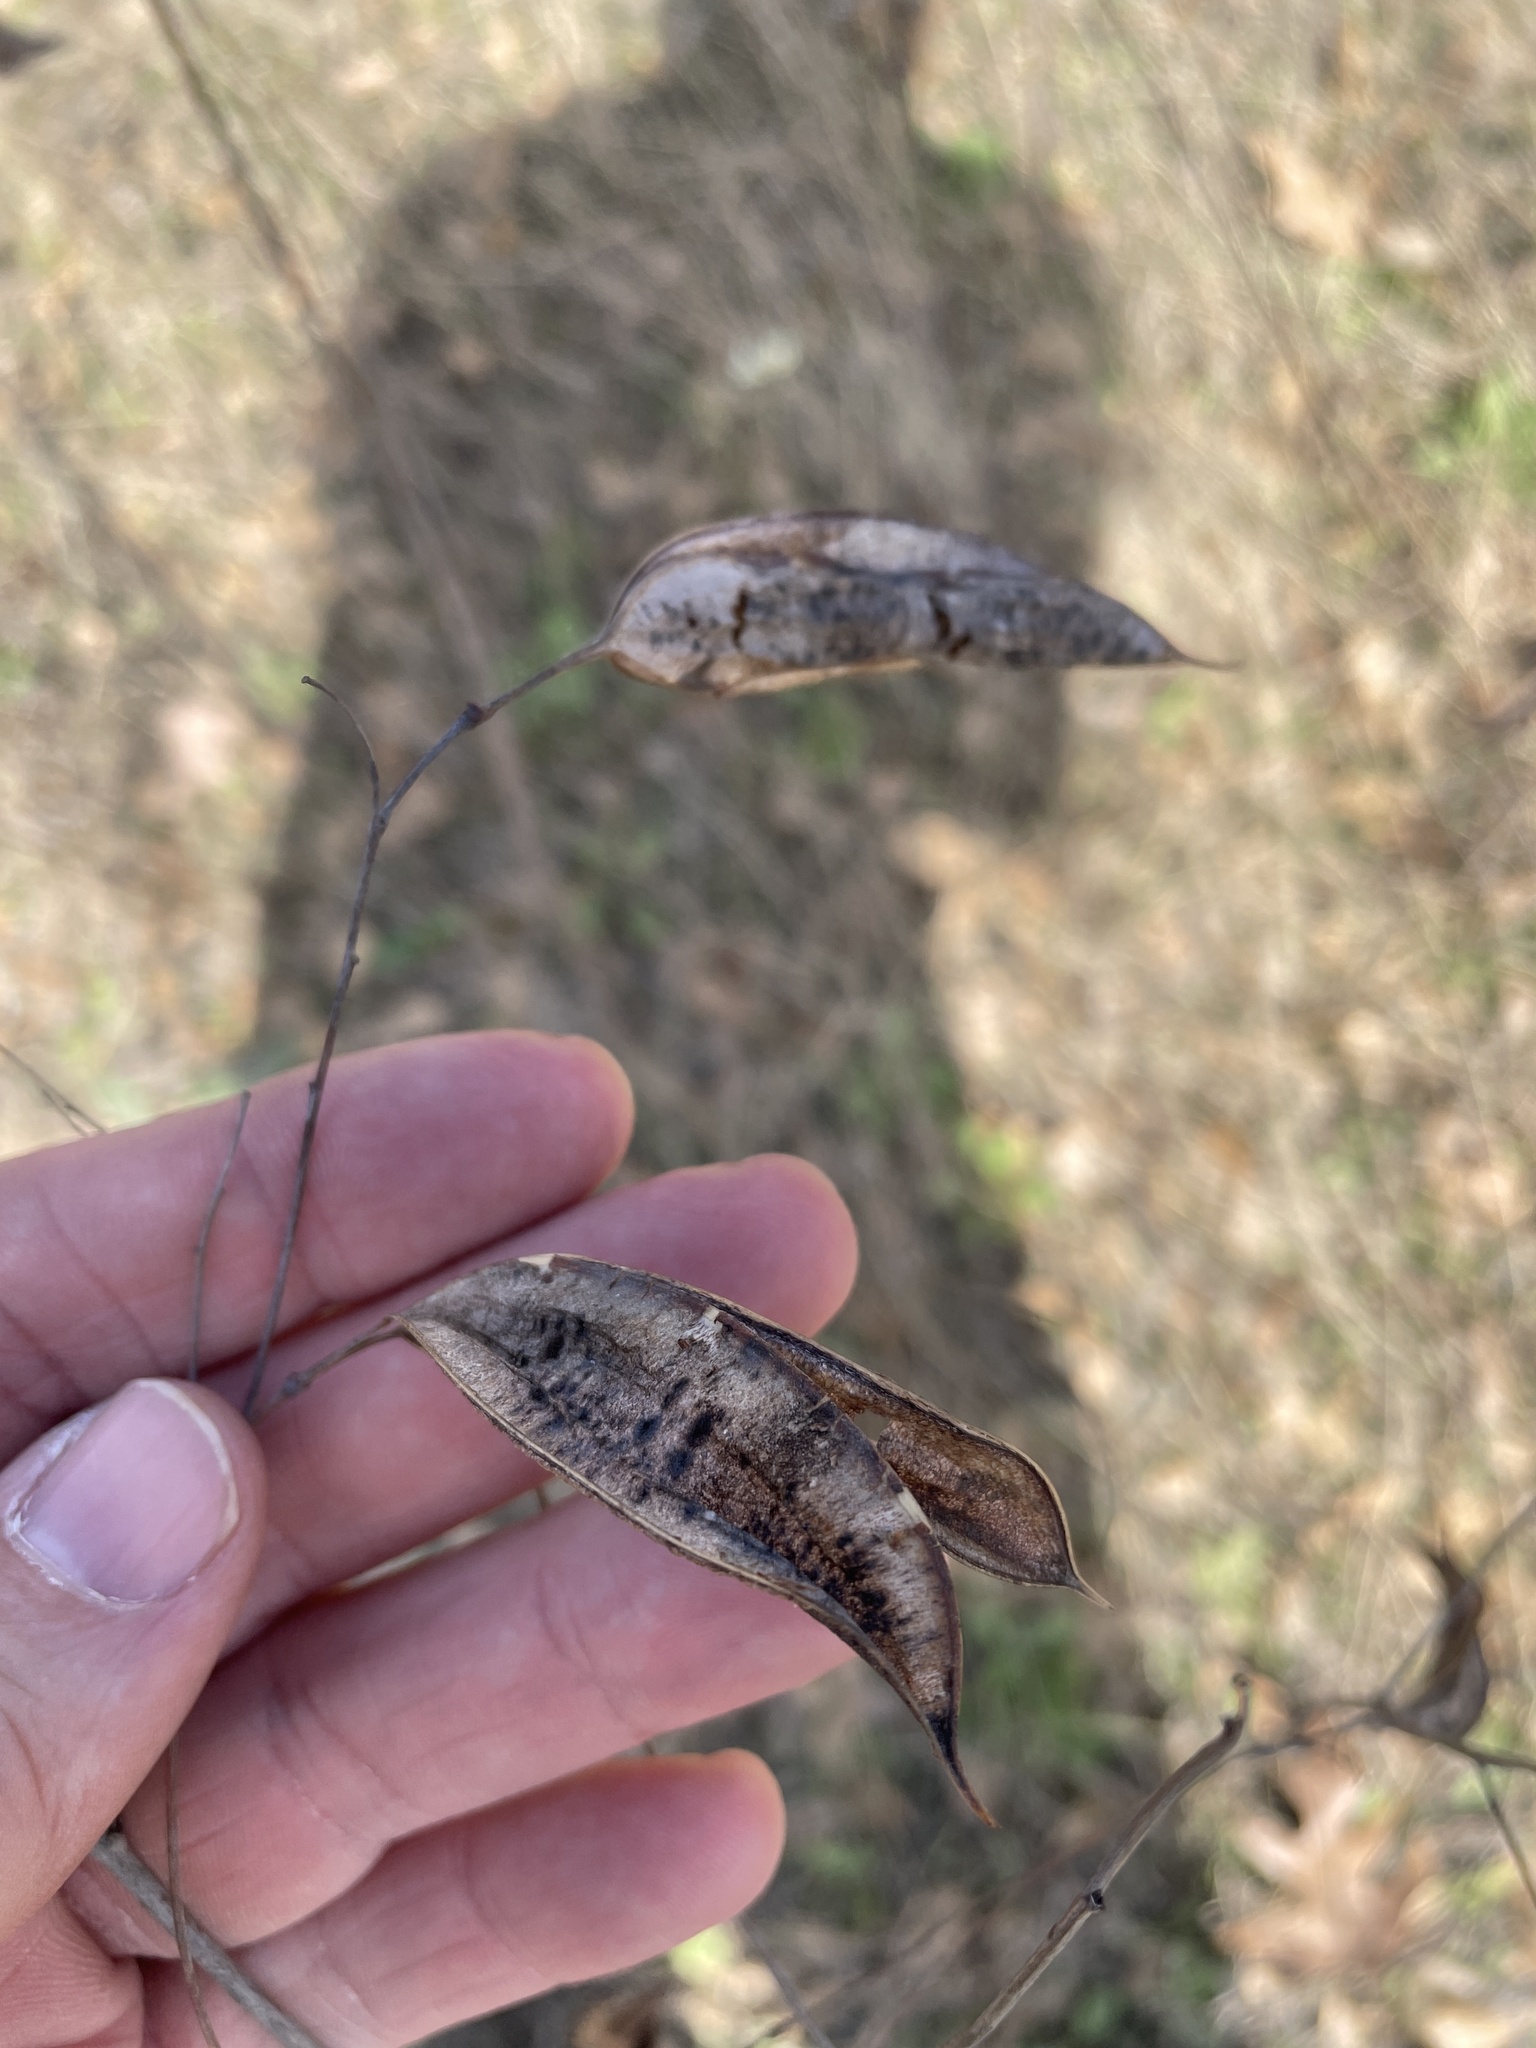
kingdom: Plantae
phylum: Tracheophyta
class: Magnoliopsida
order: Fabales
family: Fabaceae
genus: Sesbania
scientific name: Sesbania vesicaria
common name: Bagpod
